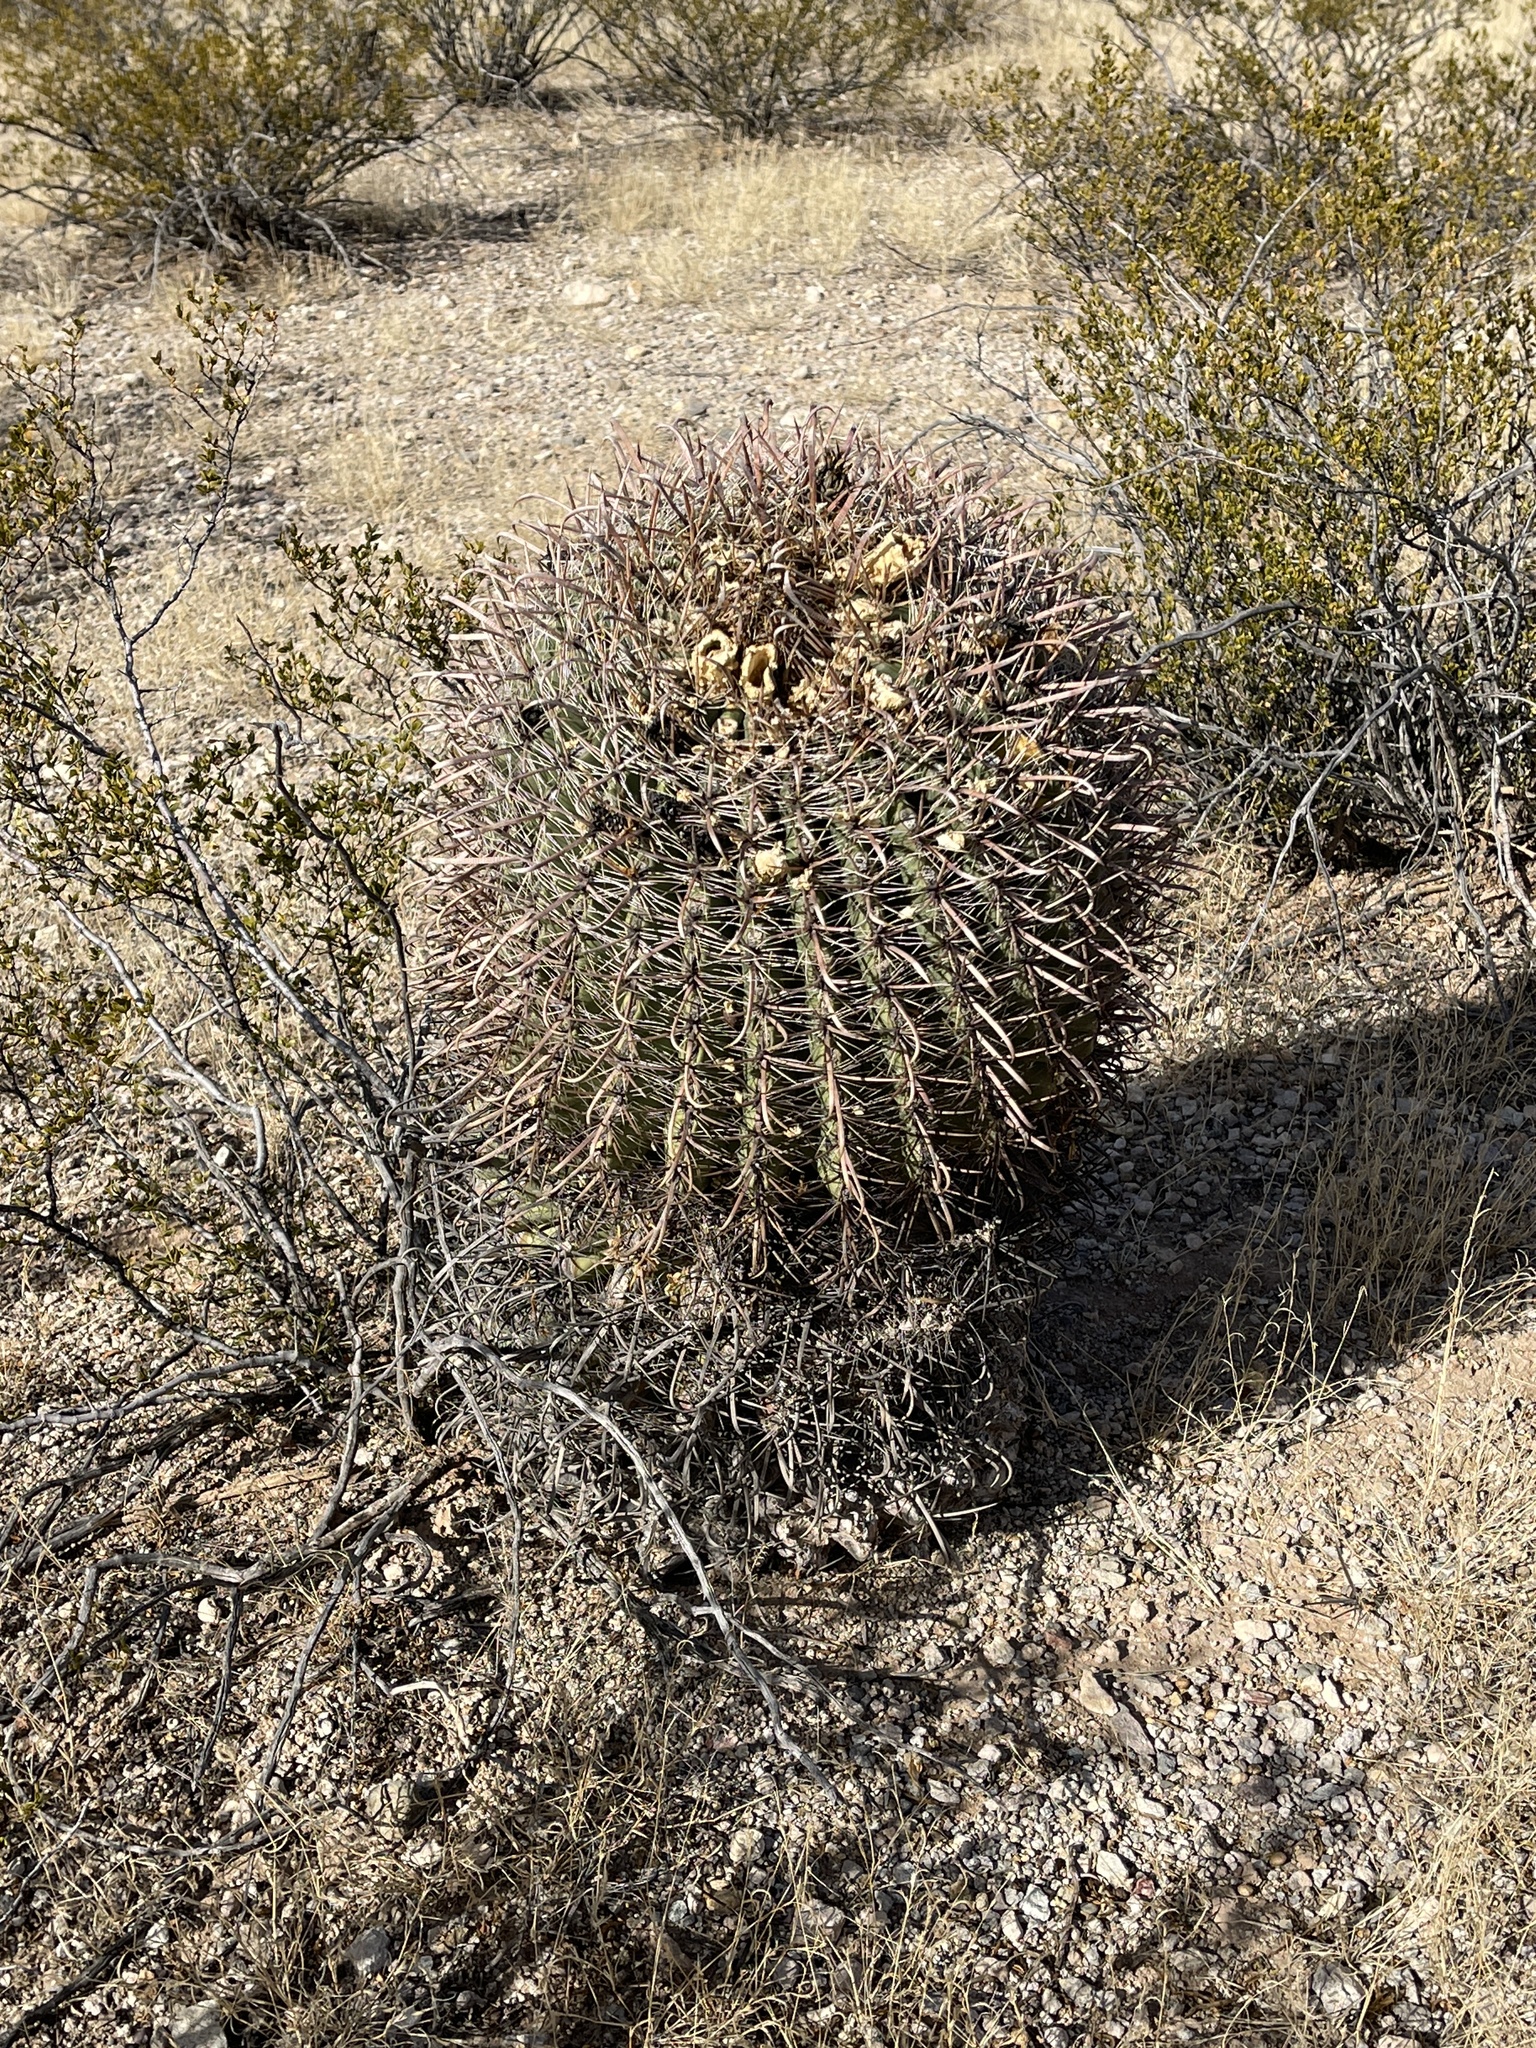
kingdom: Plantae
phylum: Tracheophyta
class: Magnoliopsida
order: Caryophyllales
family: Cactaceae
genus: Ferocactus
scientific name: Ferocactus wislizeni
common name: Candy barrel cactus
